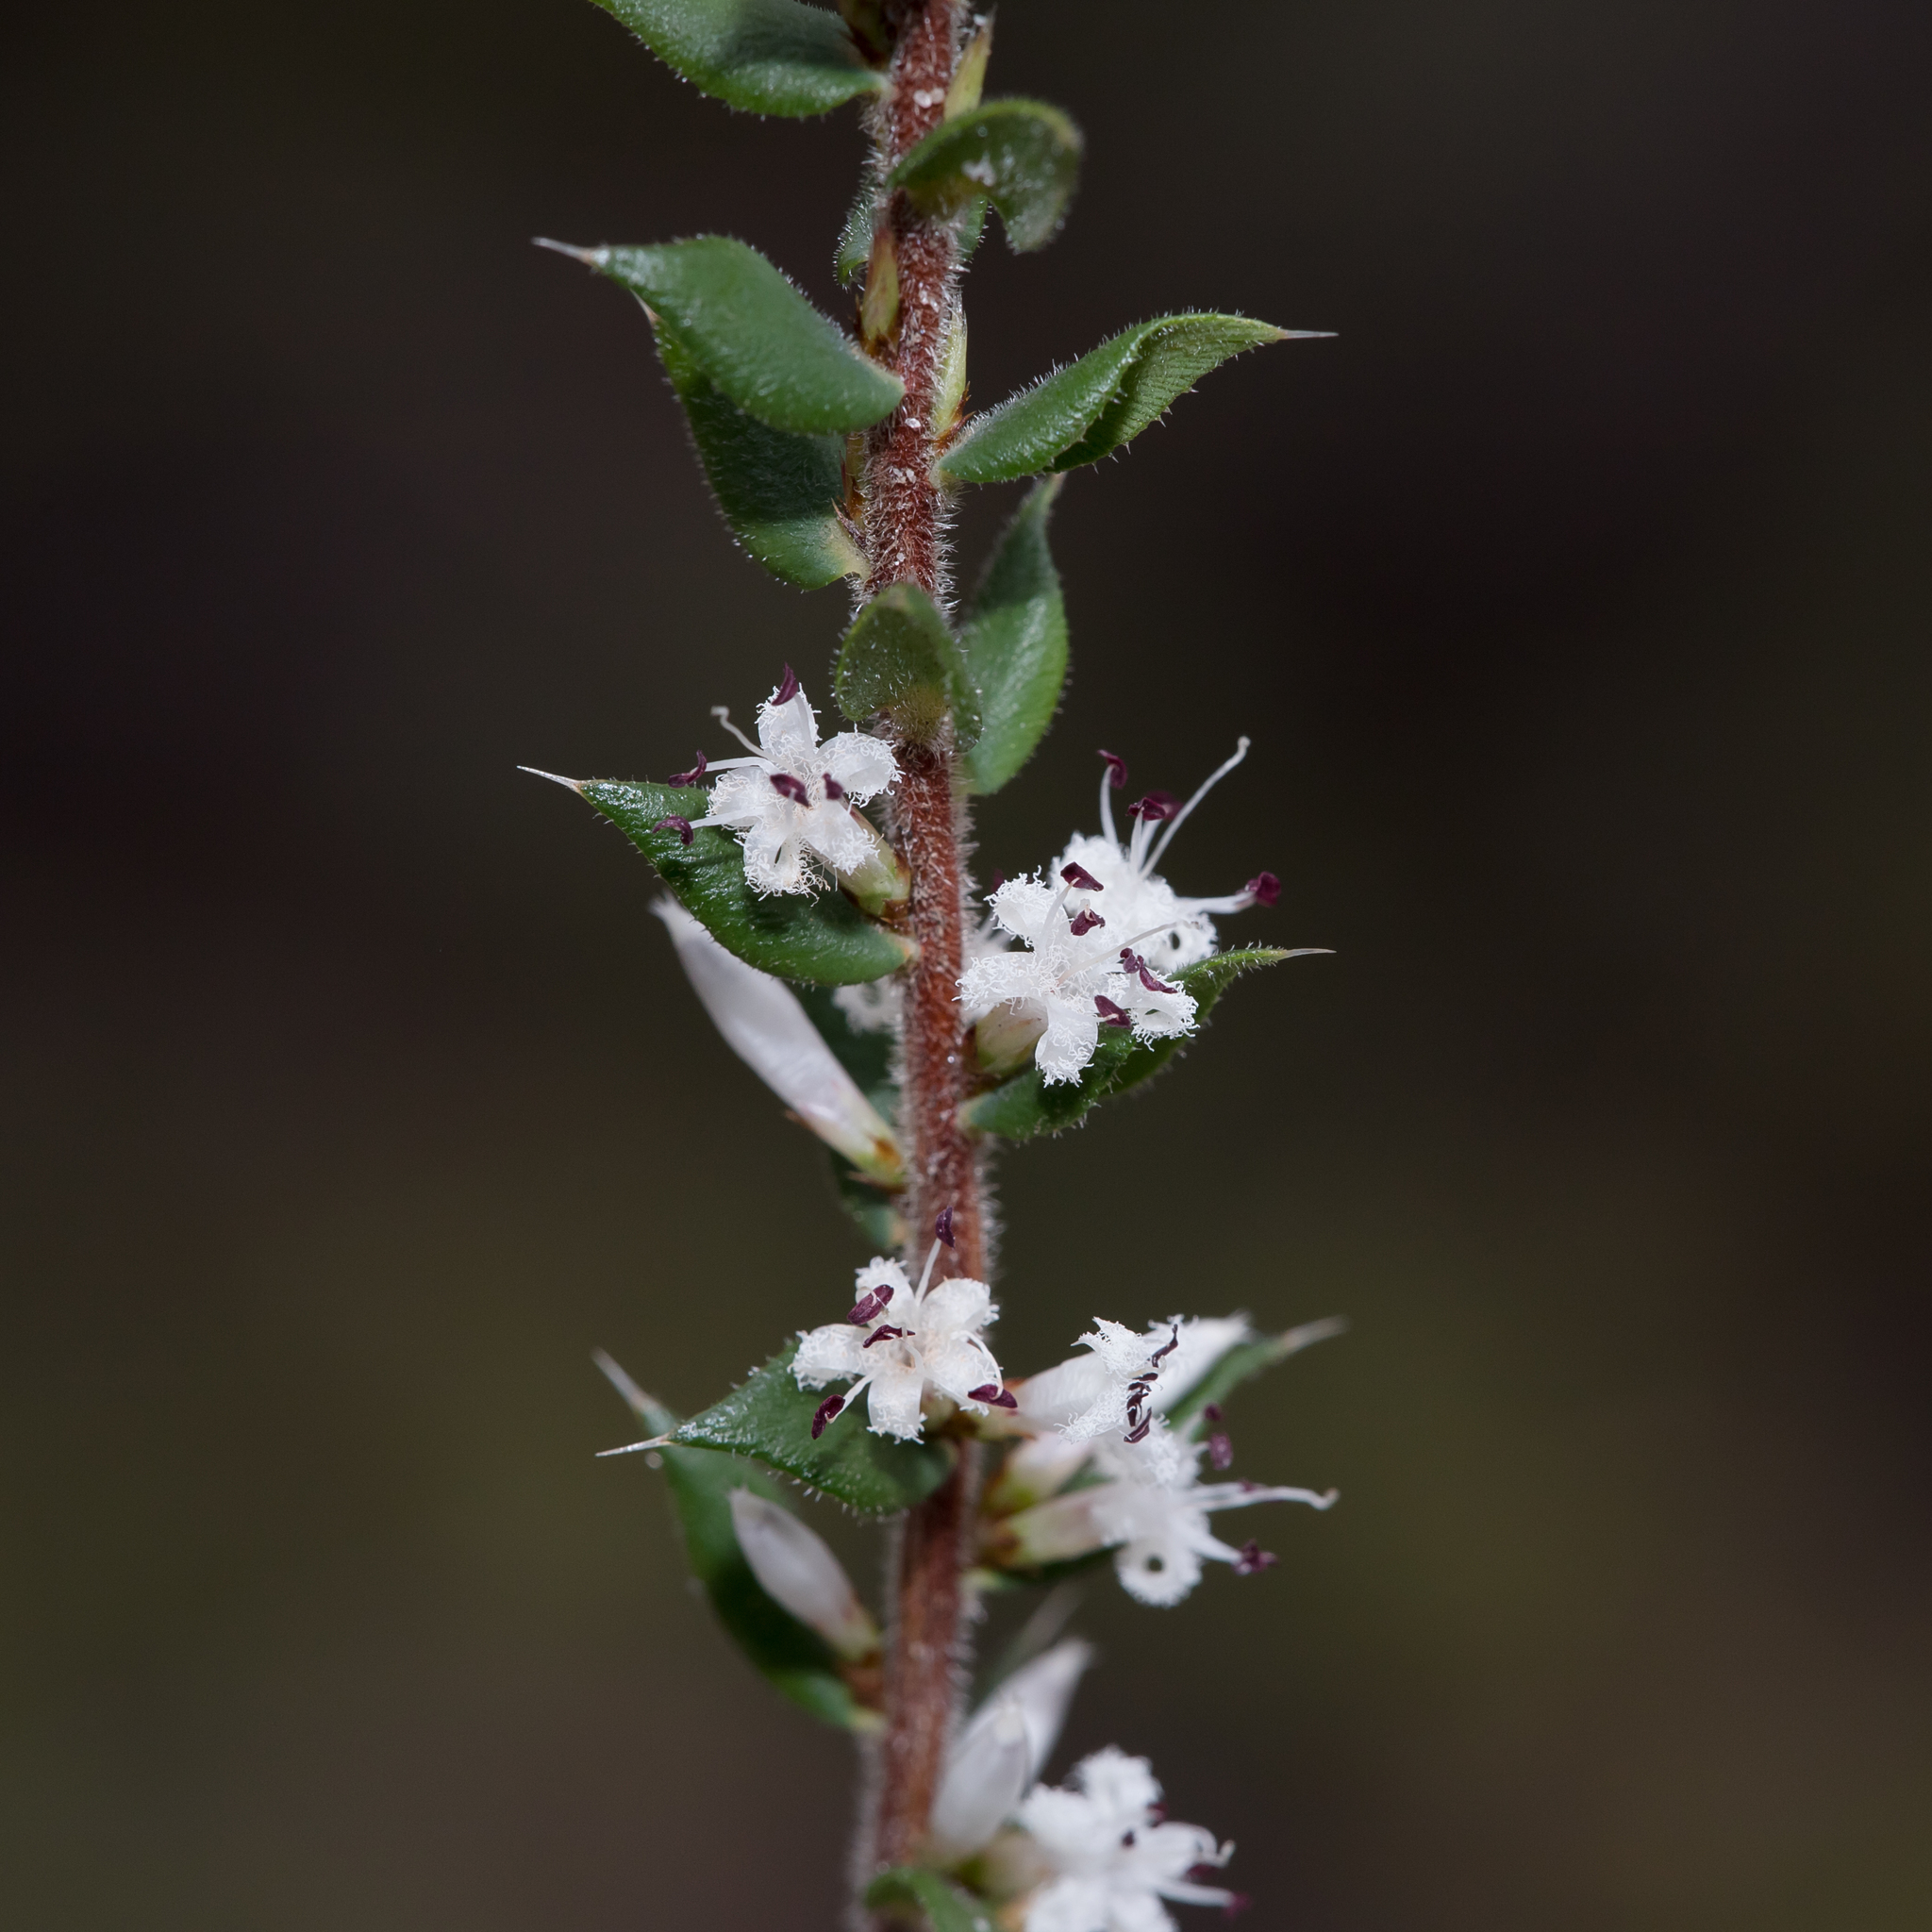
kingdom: Plantae
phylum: Tracheophyta
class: Magnoliopsida
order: Ericales
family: Ericaceae
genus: Styphelia
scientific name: Styphelia exarrhena
